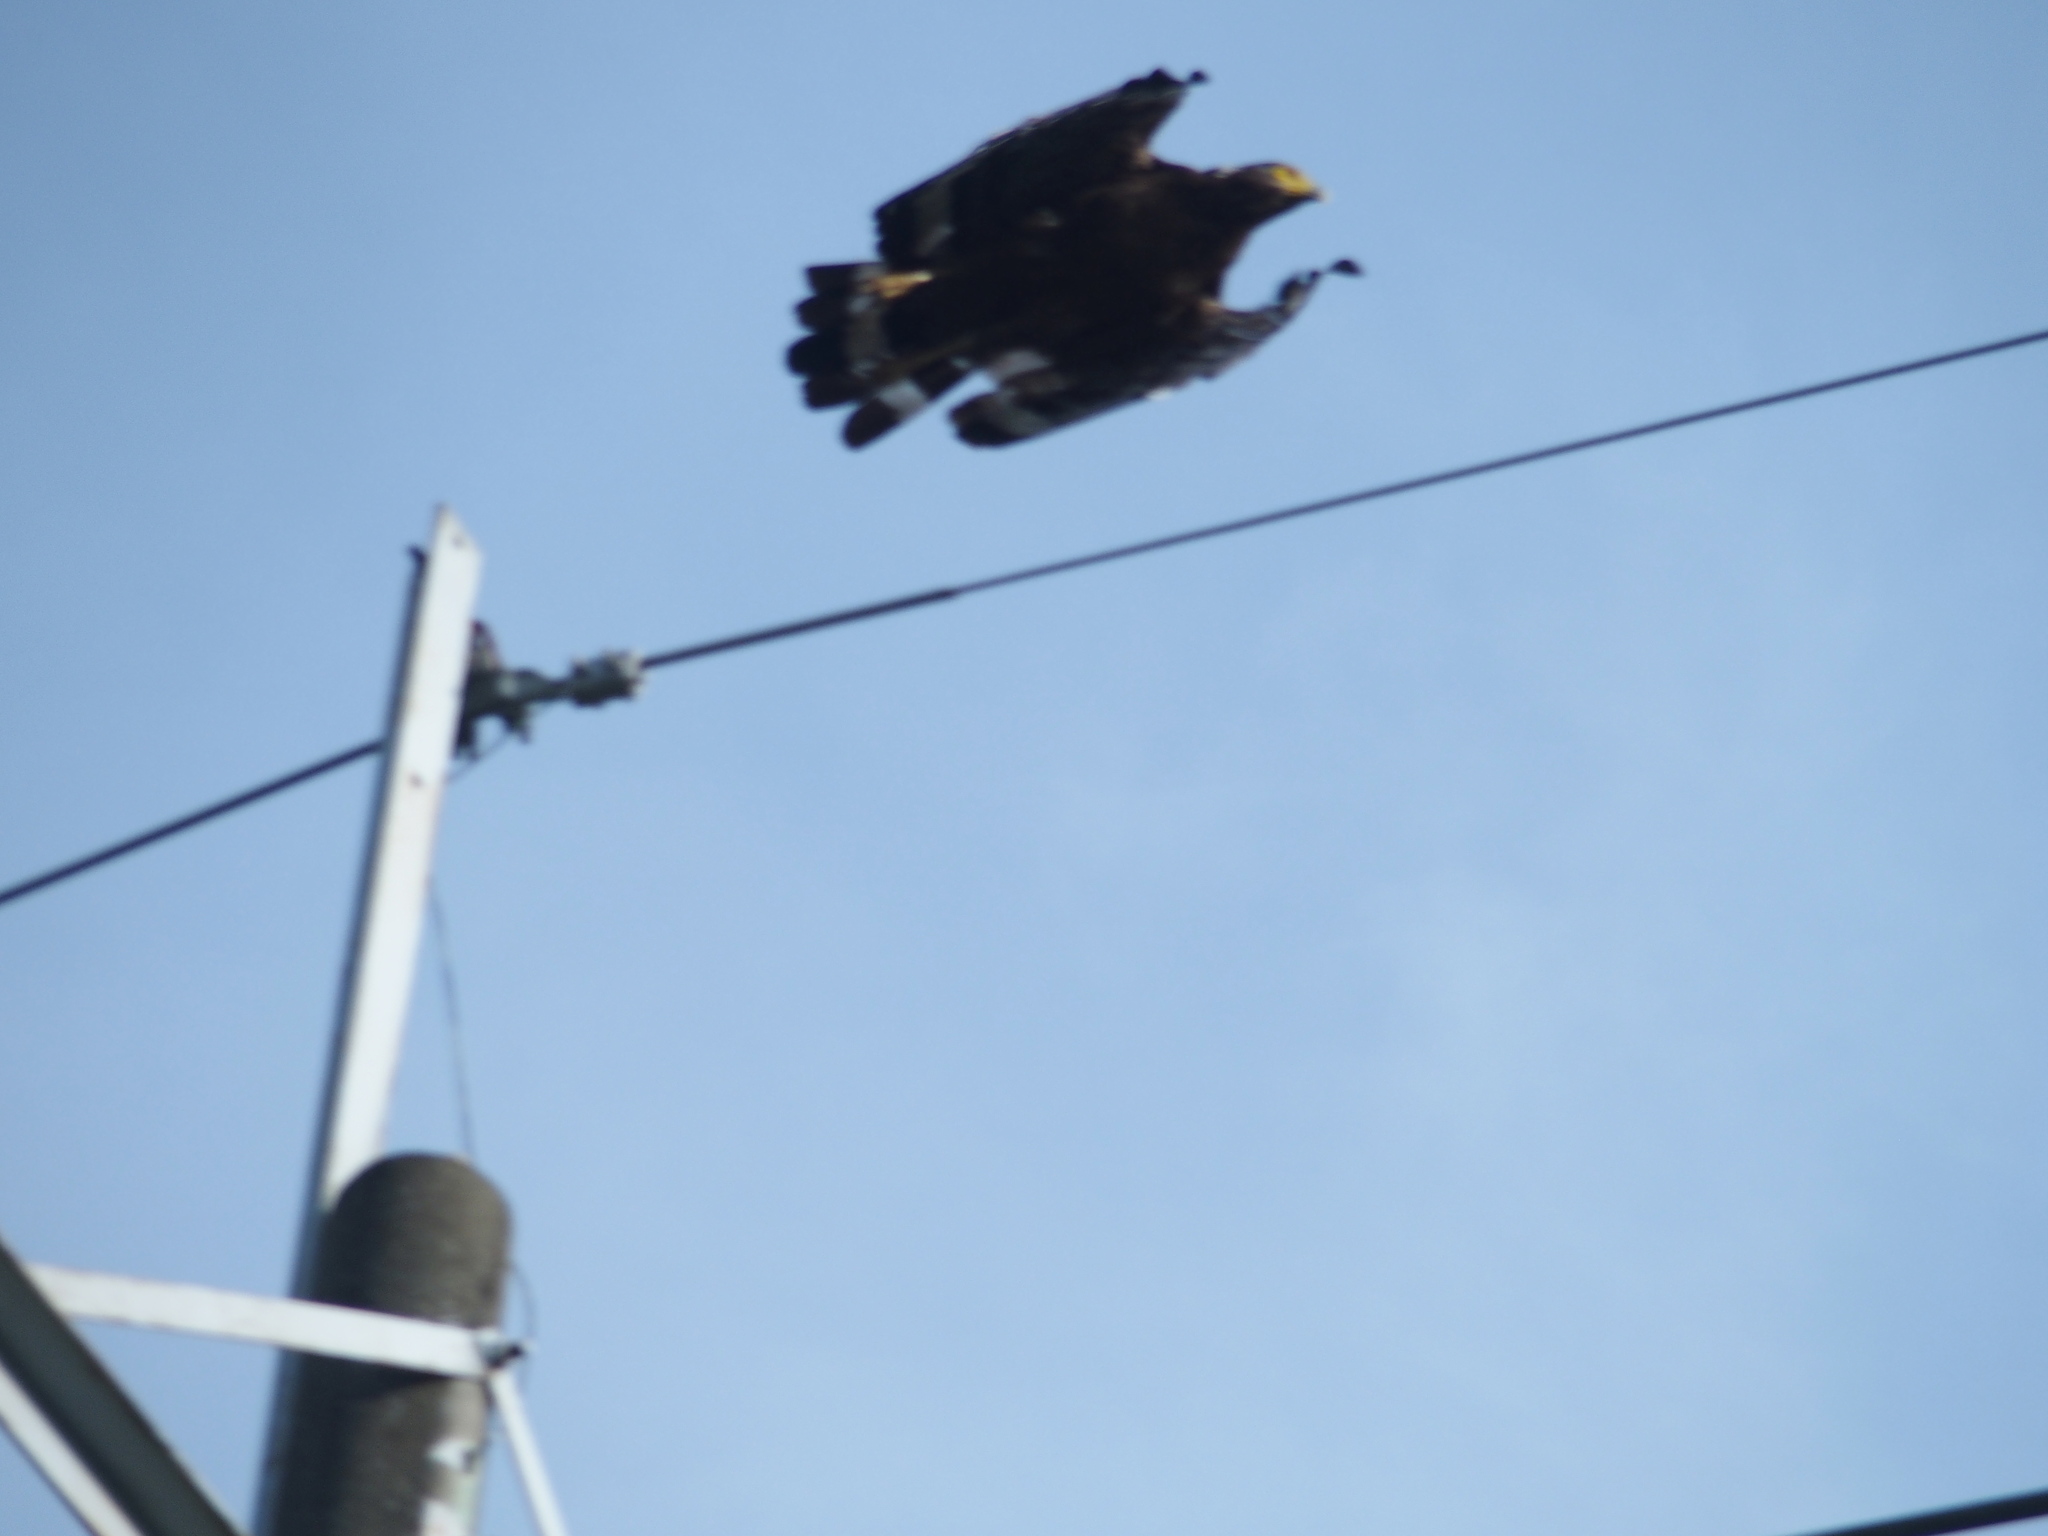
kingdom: Animalia
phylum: Chordata
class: Aves
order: Accipitriformes
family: Accipitridae
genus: Spilornis
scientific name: Spilornis cheela
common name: Crested serpent eagle
